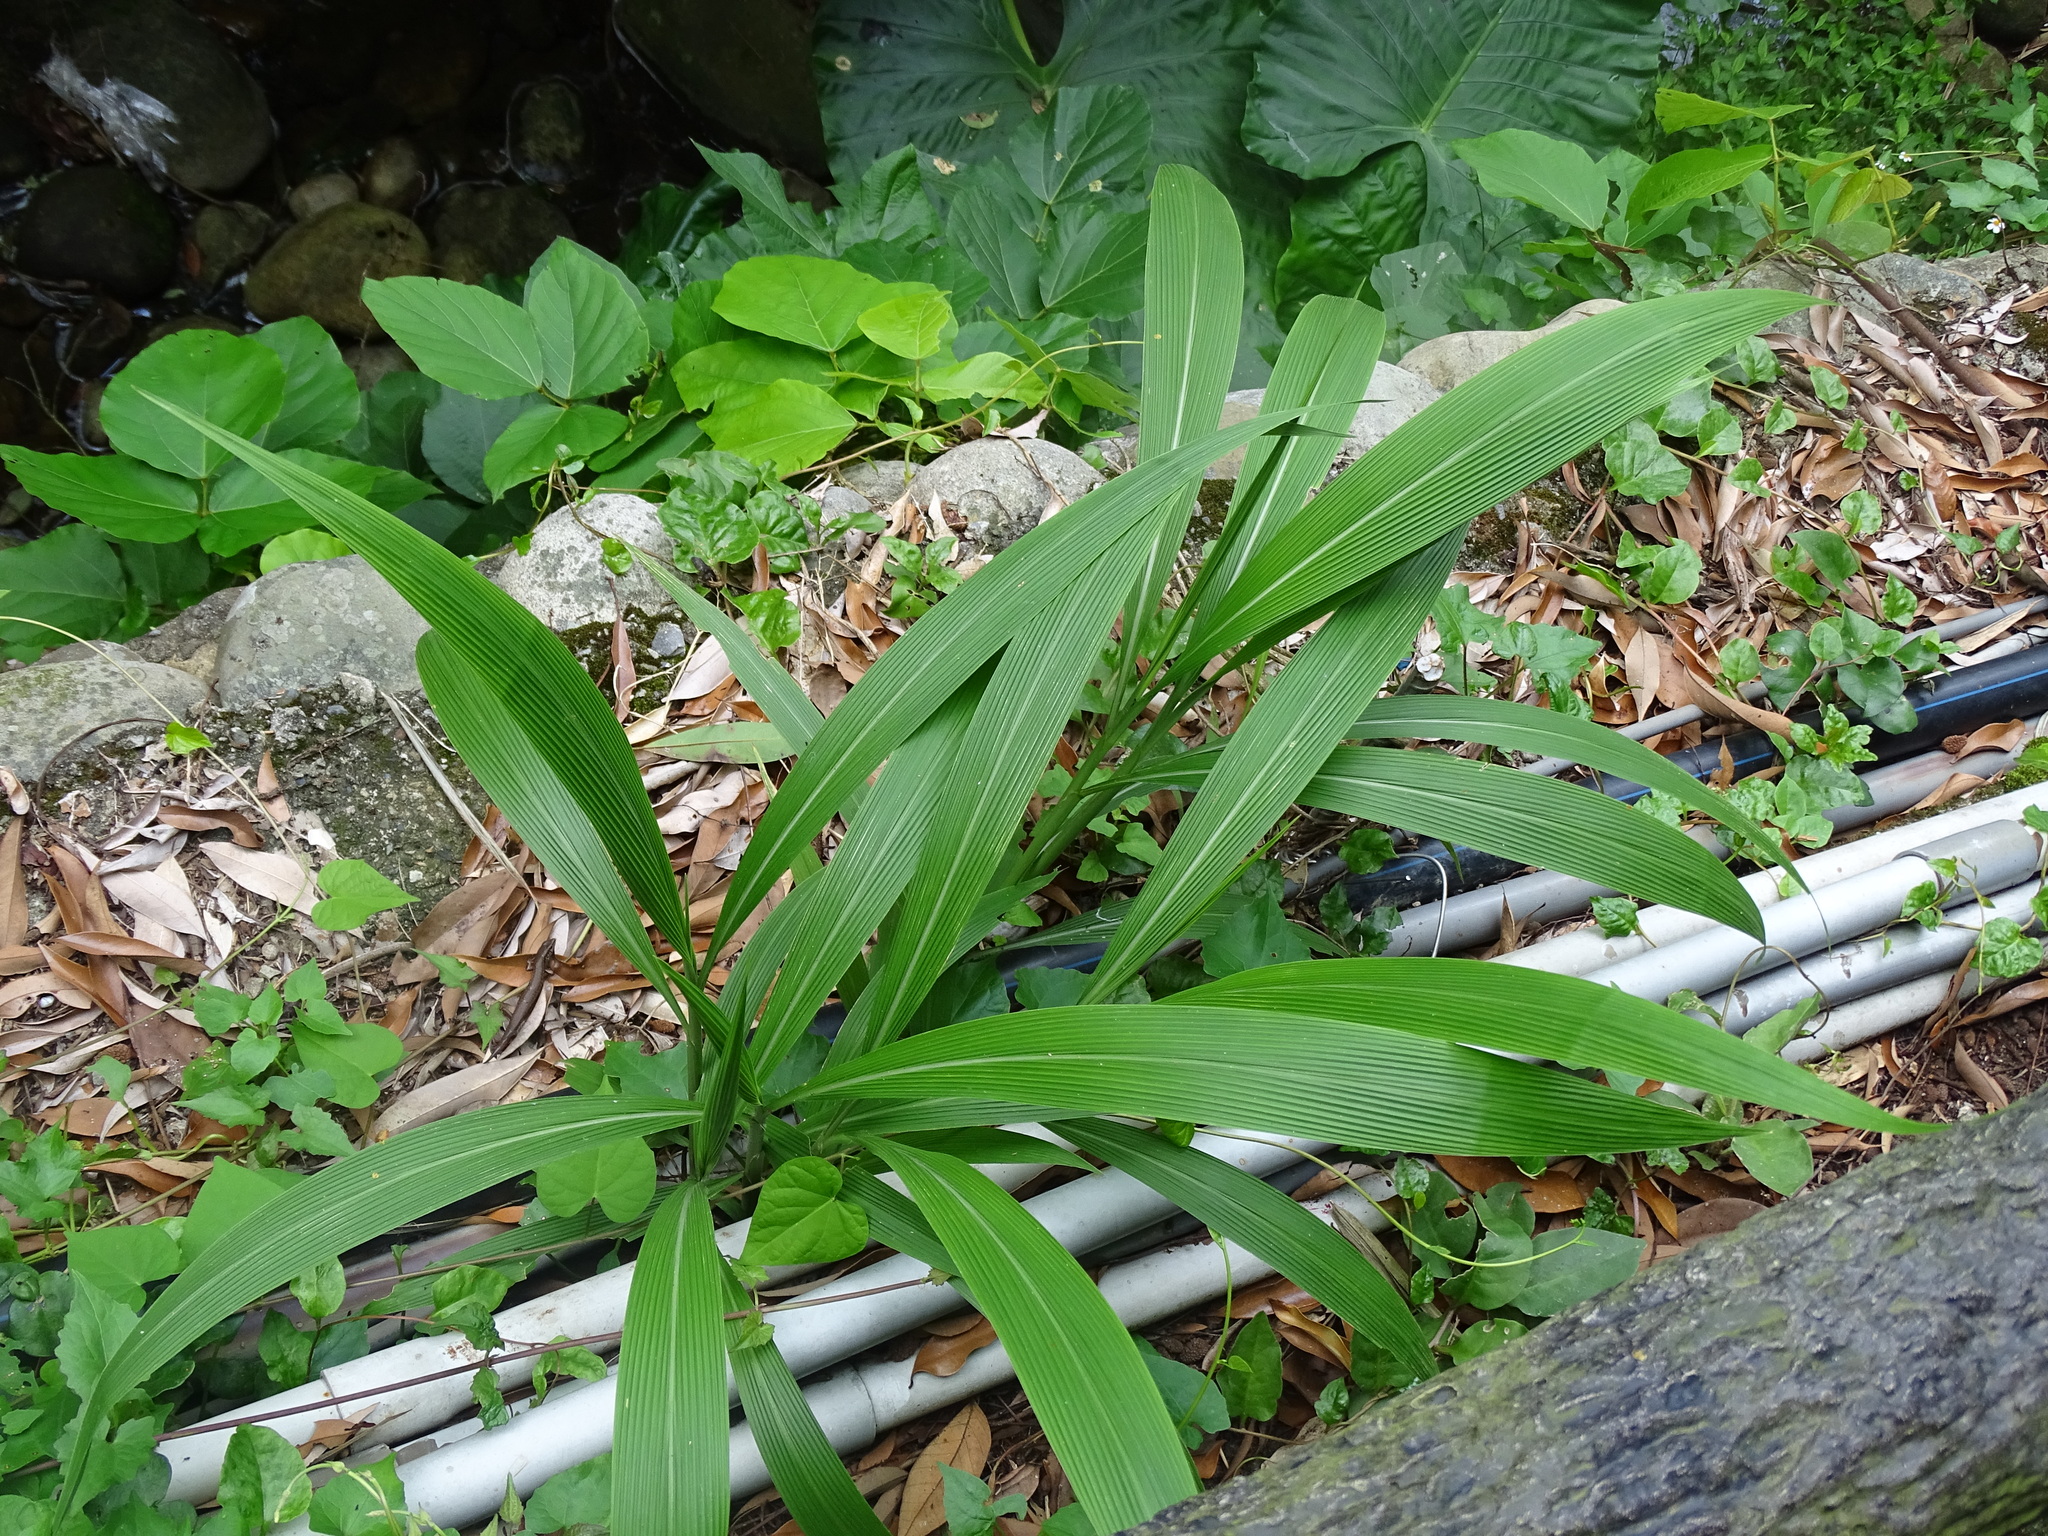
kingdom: Plantae
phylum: Tracheophyta
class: Liliopsida
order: Poales
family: Poaceae
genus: Setaria
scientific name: Setaria palmifolia
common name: Broadleaved bristlegrass
